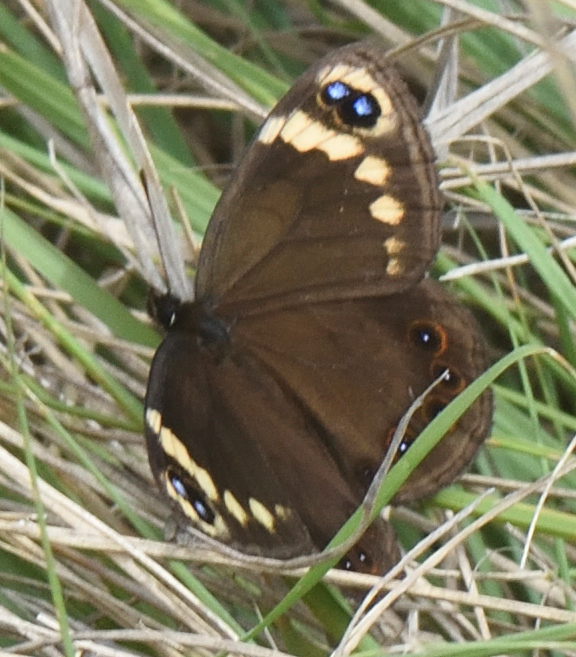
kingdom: Animalia
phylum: Arthropoda
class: Insecta
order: Lepidoptera
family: Nymphalidae
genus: Dira
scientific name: Dira clytus
